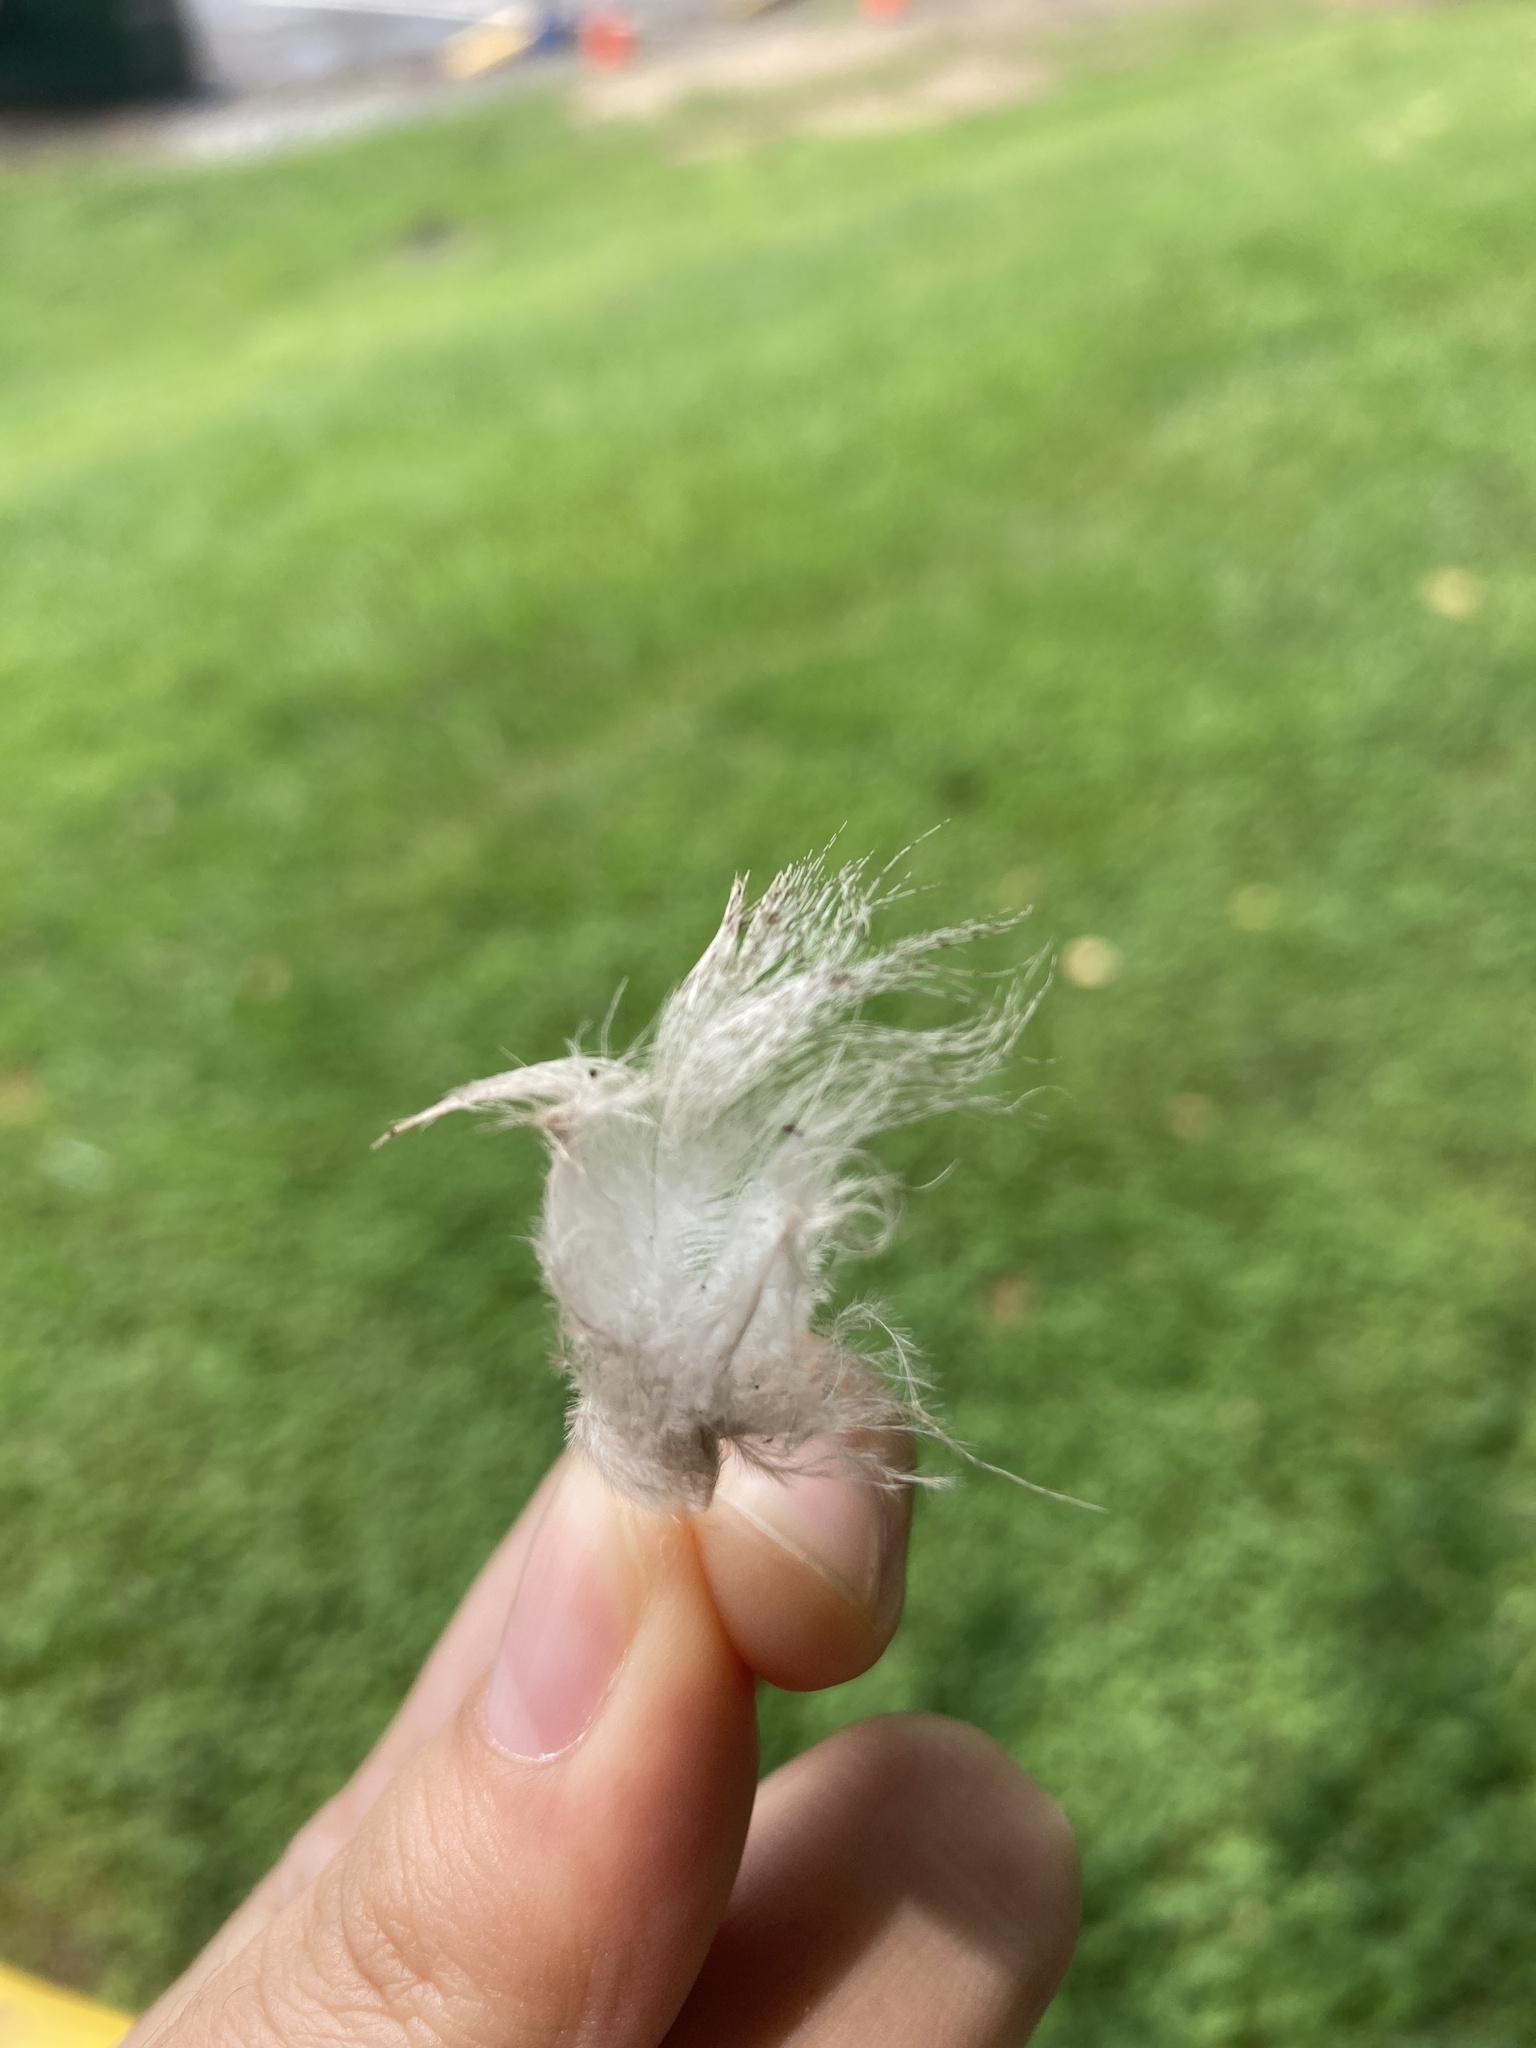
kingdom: Animalia
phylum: Chordata
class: Aves
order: Anseriformes
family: Anatidae
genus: Anas
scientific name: Anas platyrhynchos
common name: Mallard
